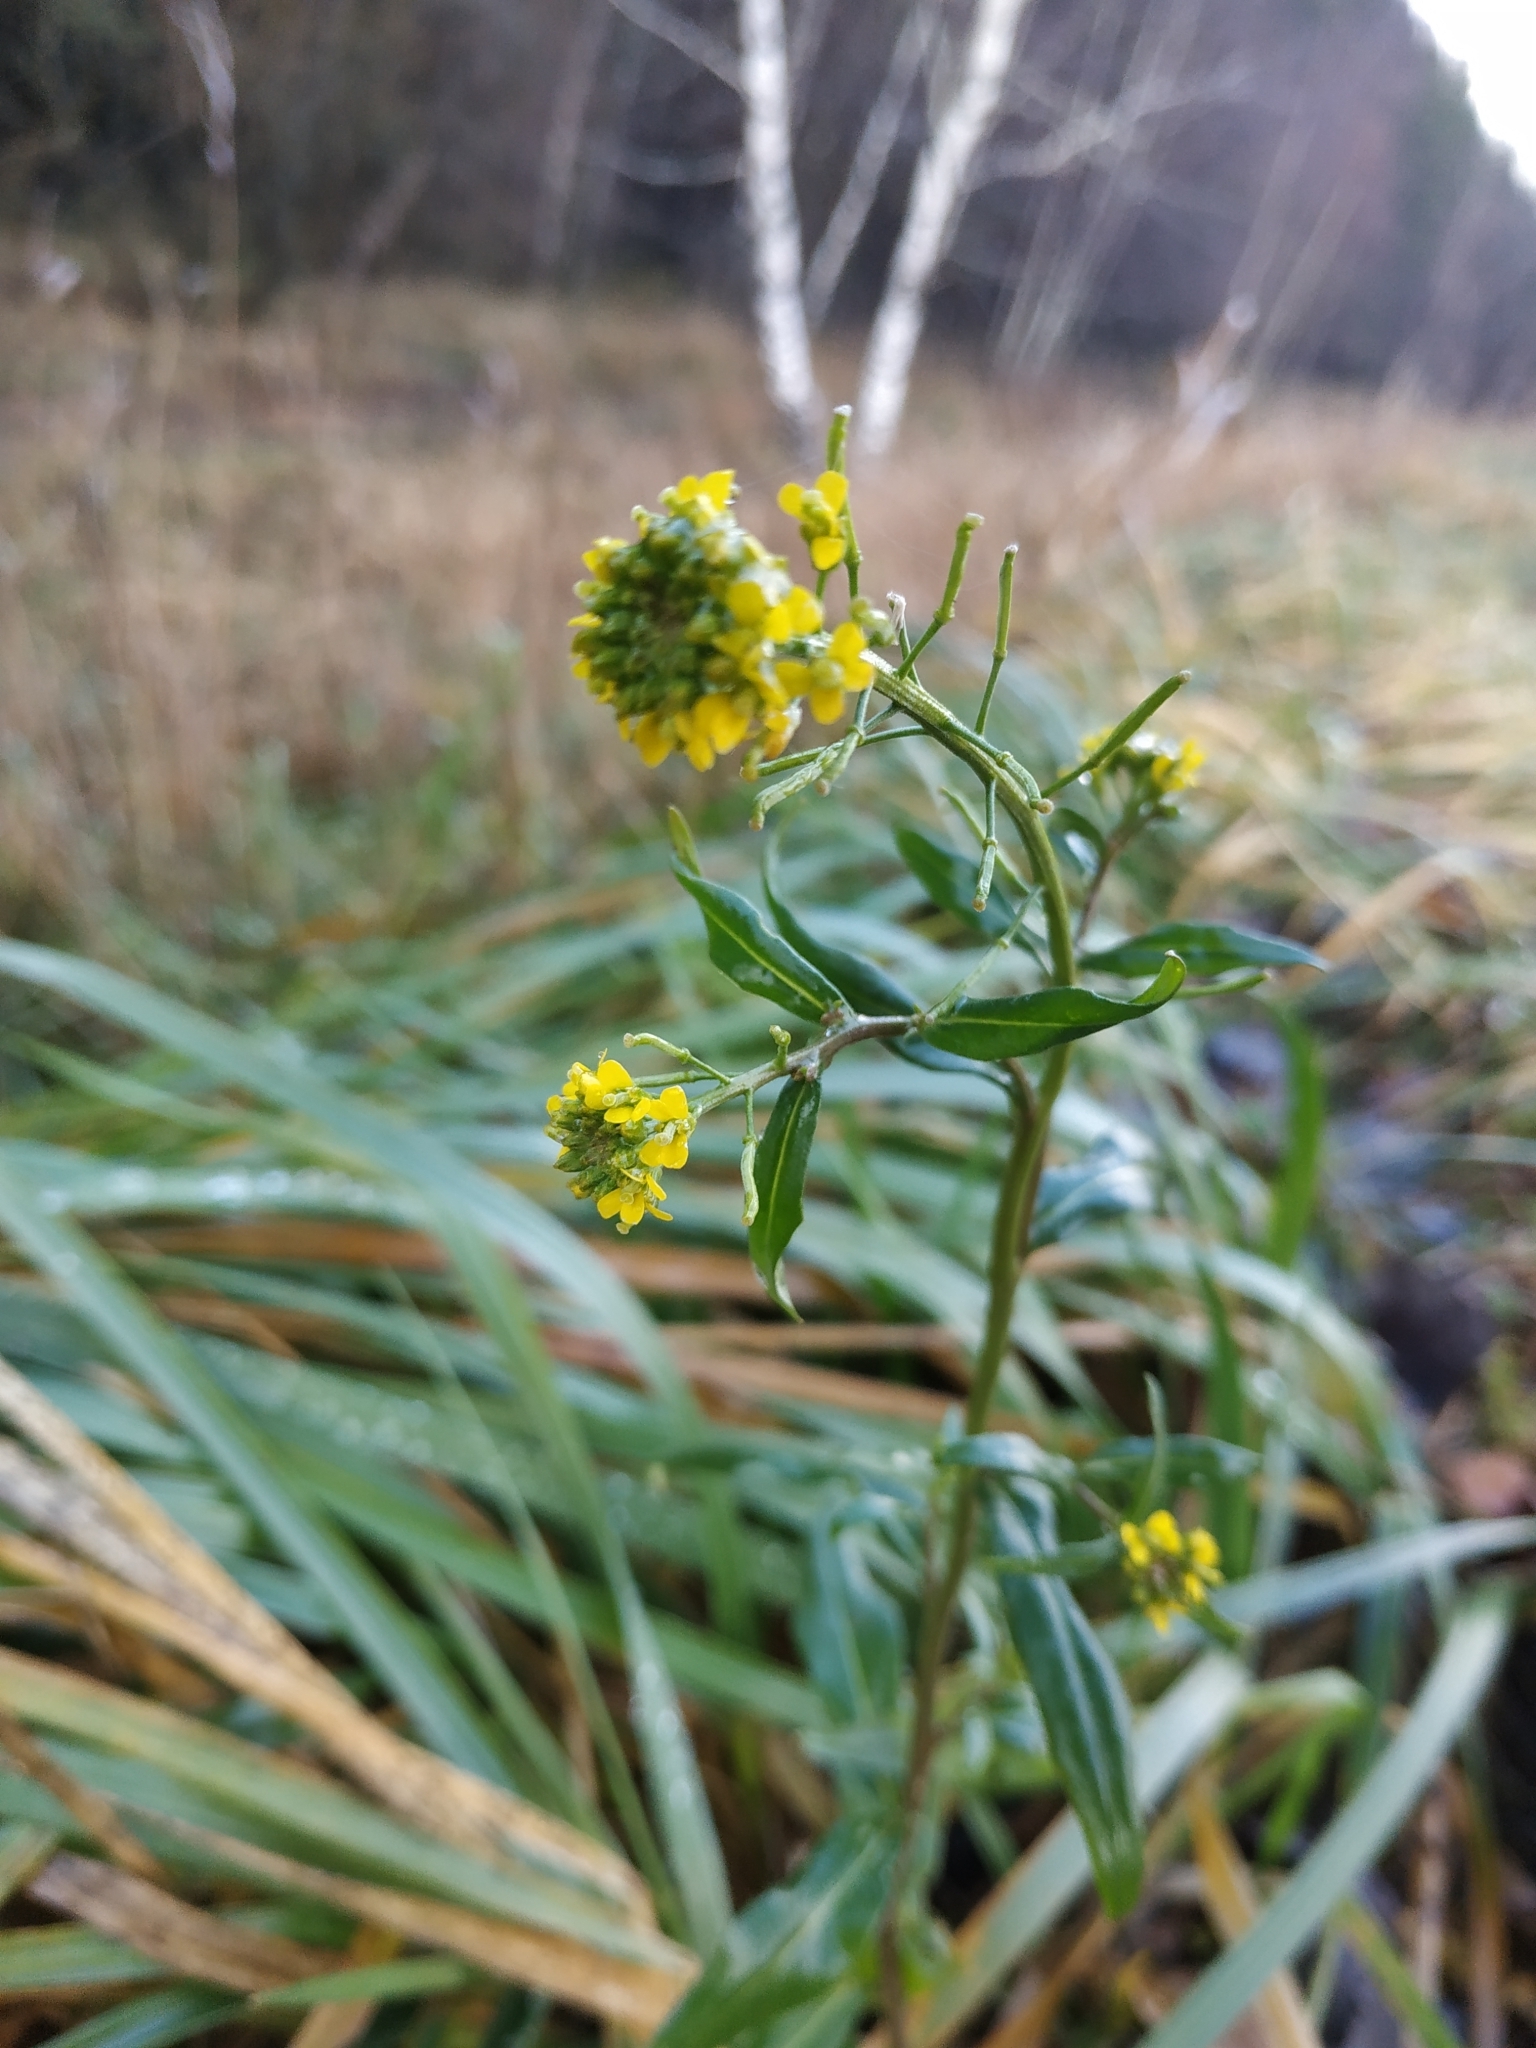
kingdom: Plantae
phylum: Tracheophyta
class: Magnoliopsida
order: Brassicales
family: Brassicaceae
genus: Erysimum
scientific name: Erysimum cheiranthoides
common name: Treacle mustard
